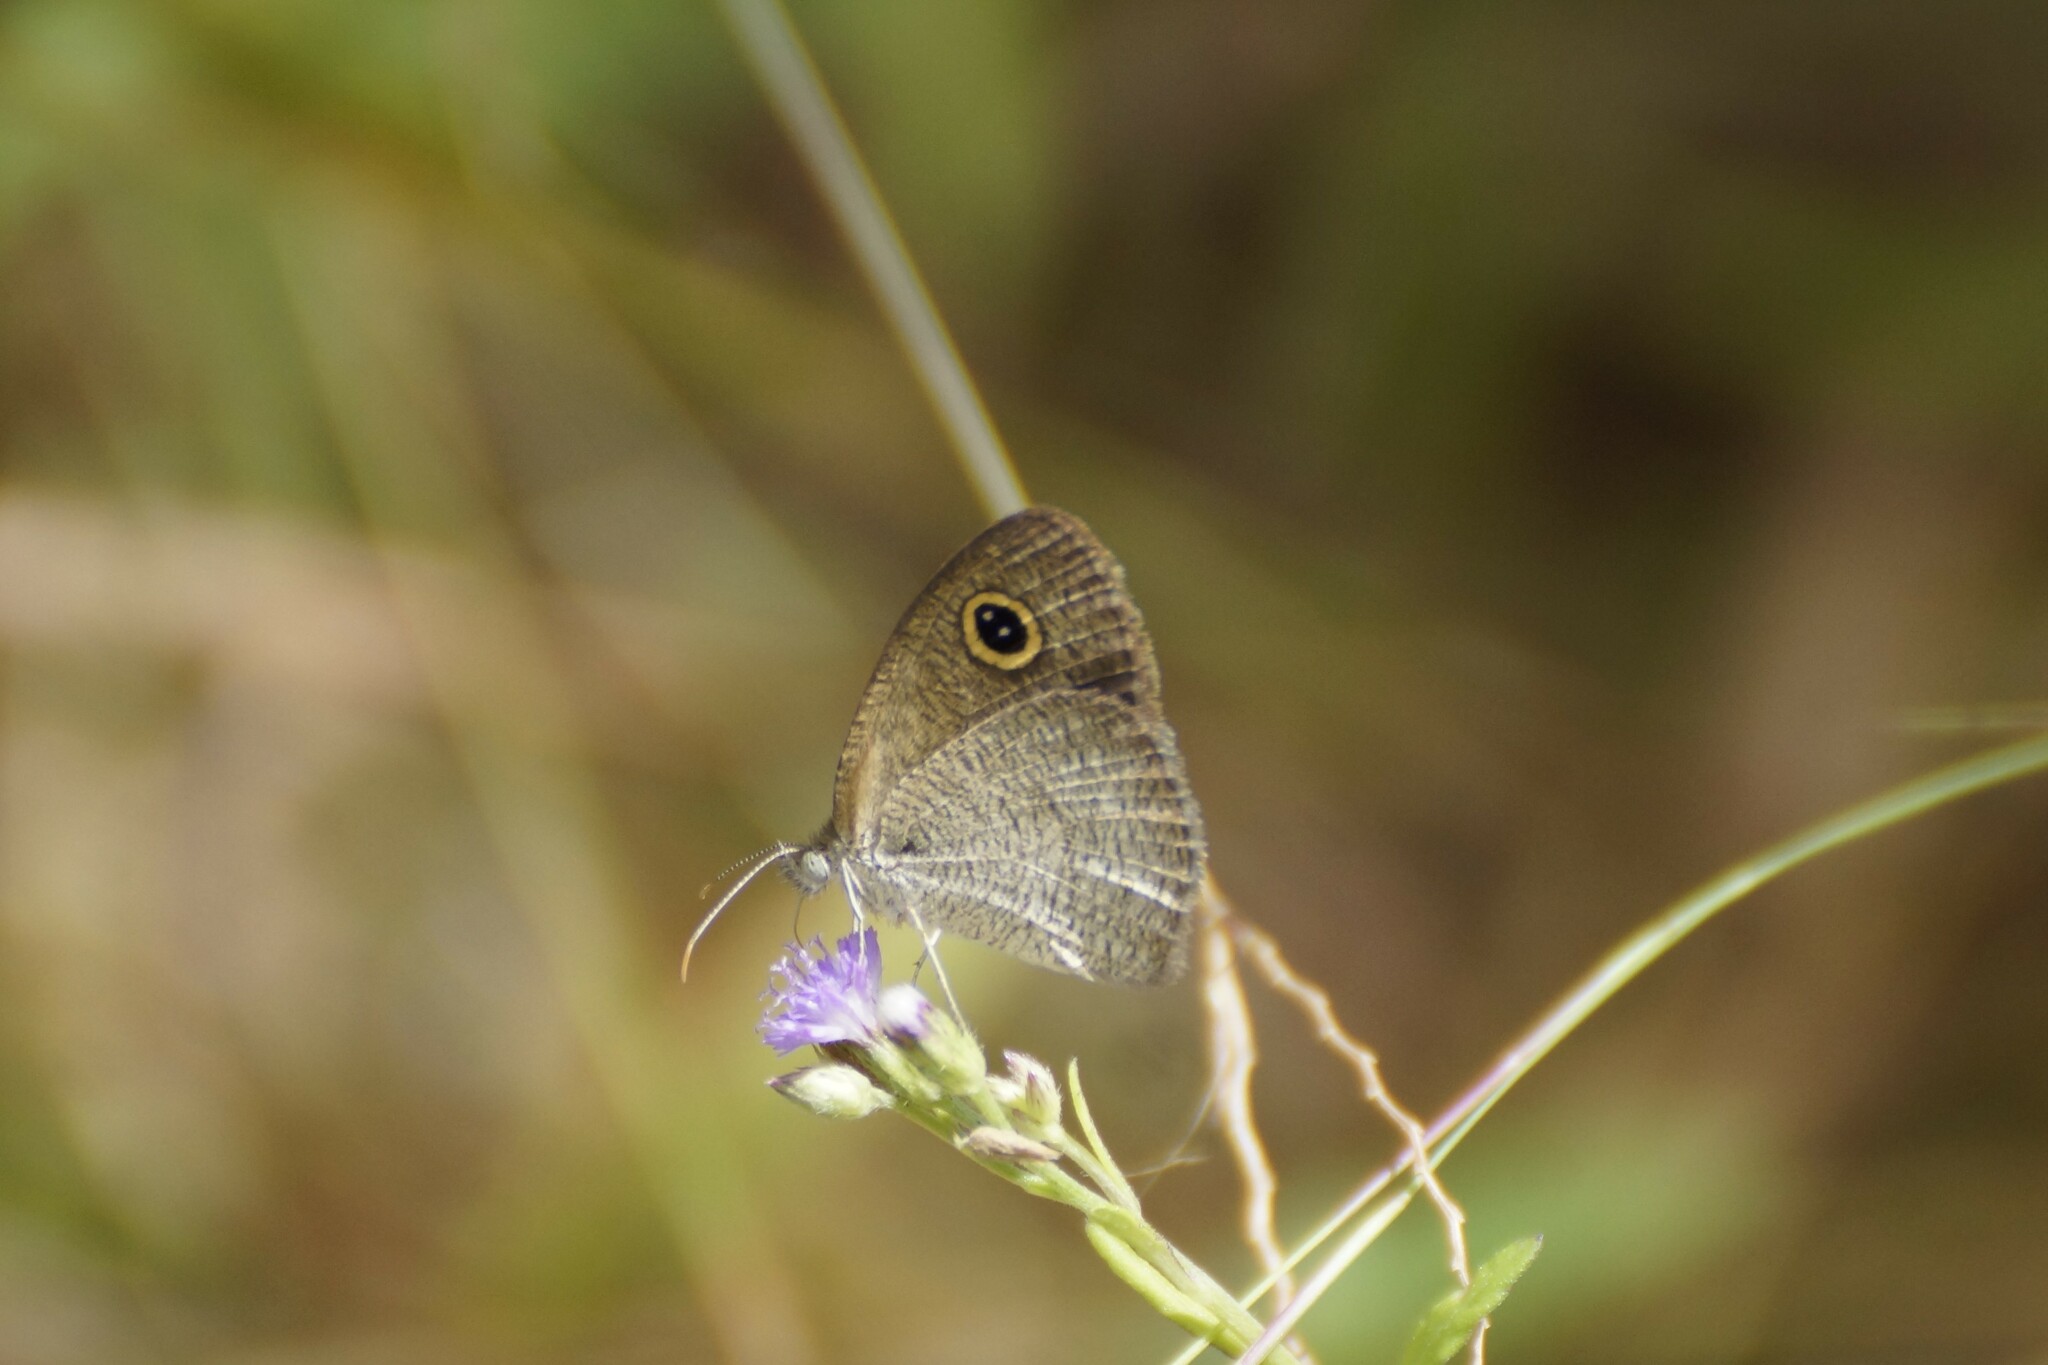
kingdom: Animalia
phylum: Arthropoda
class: Insecta
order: Lepidoptera
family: Nymphalidae
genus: Ypthima
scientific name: Ypthima arctous
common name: Dusky knight
